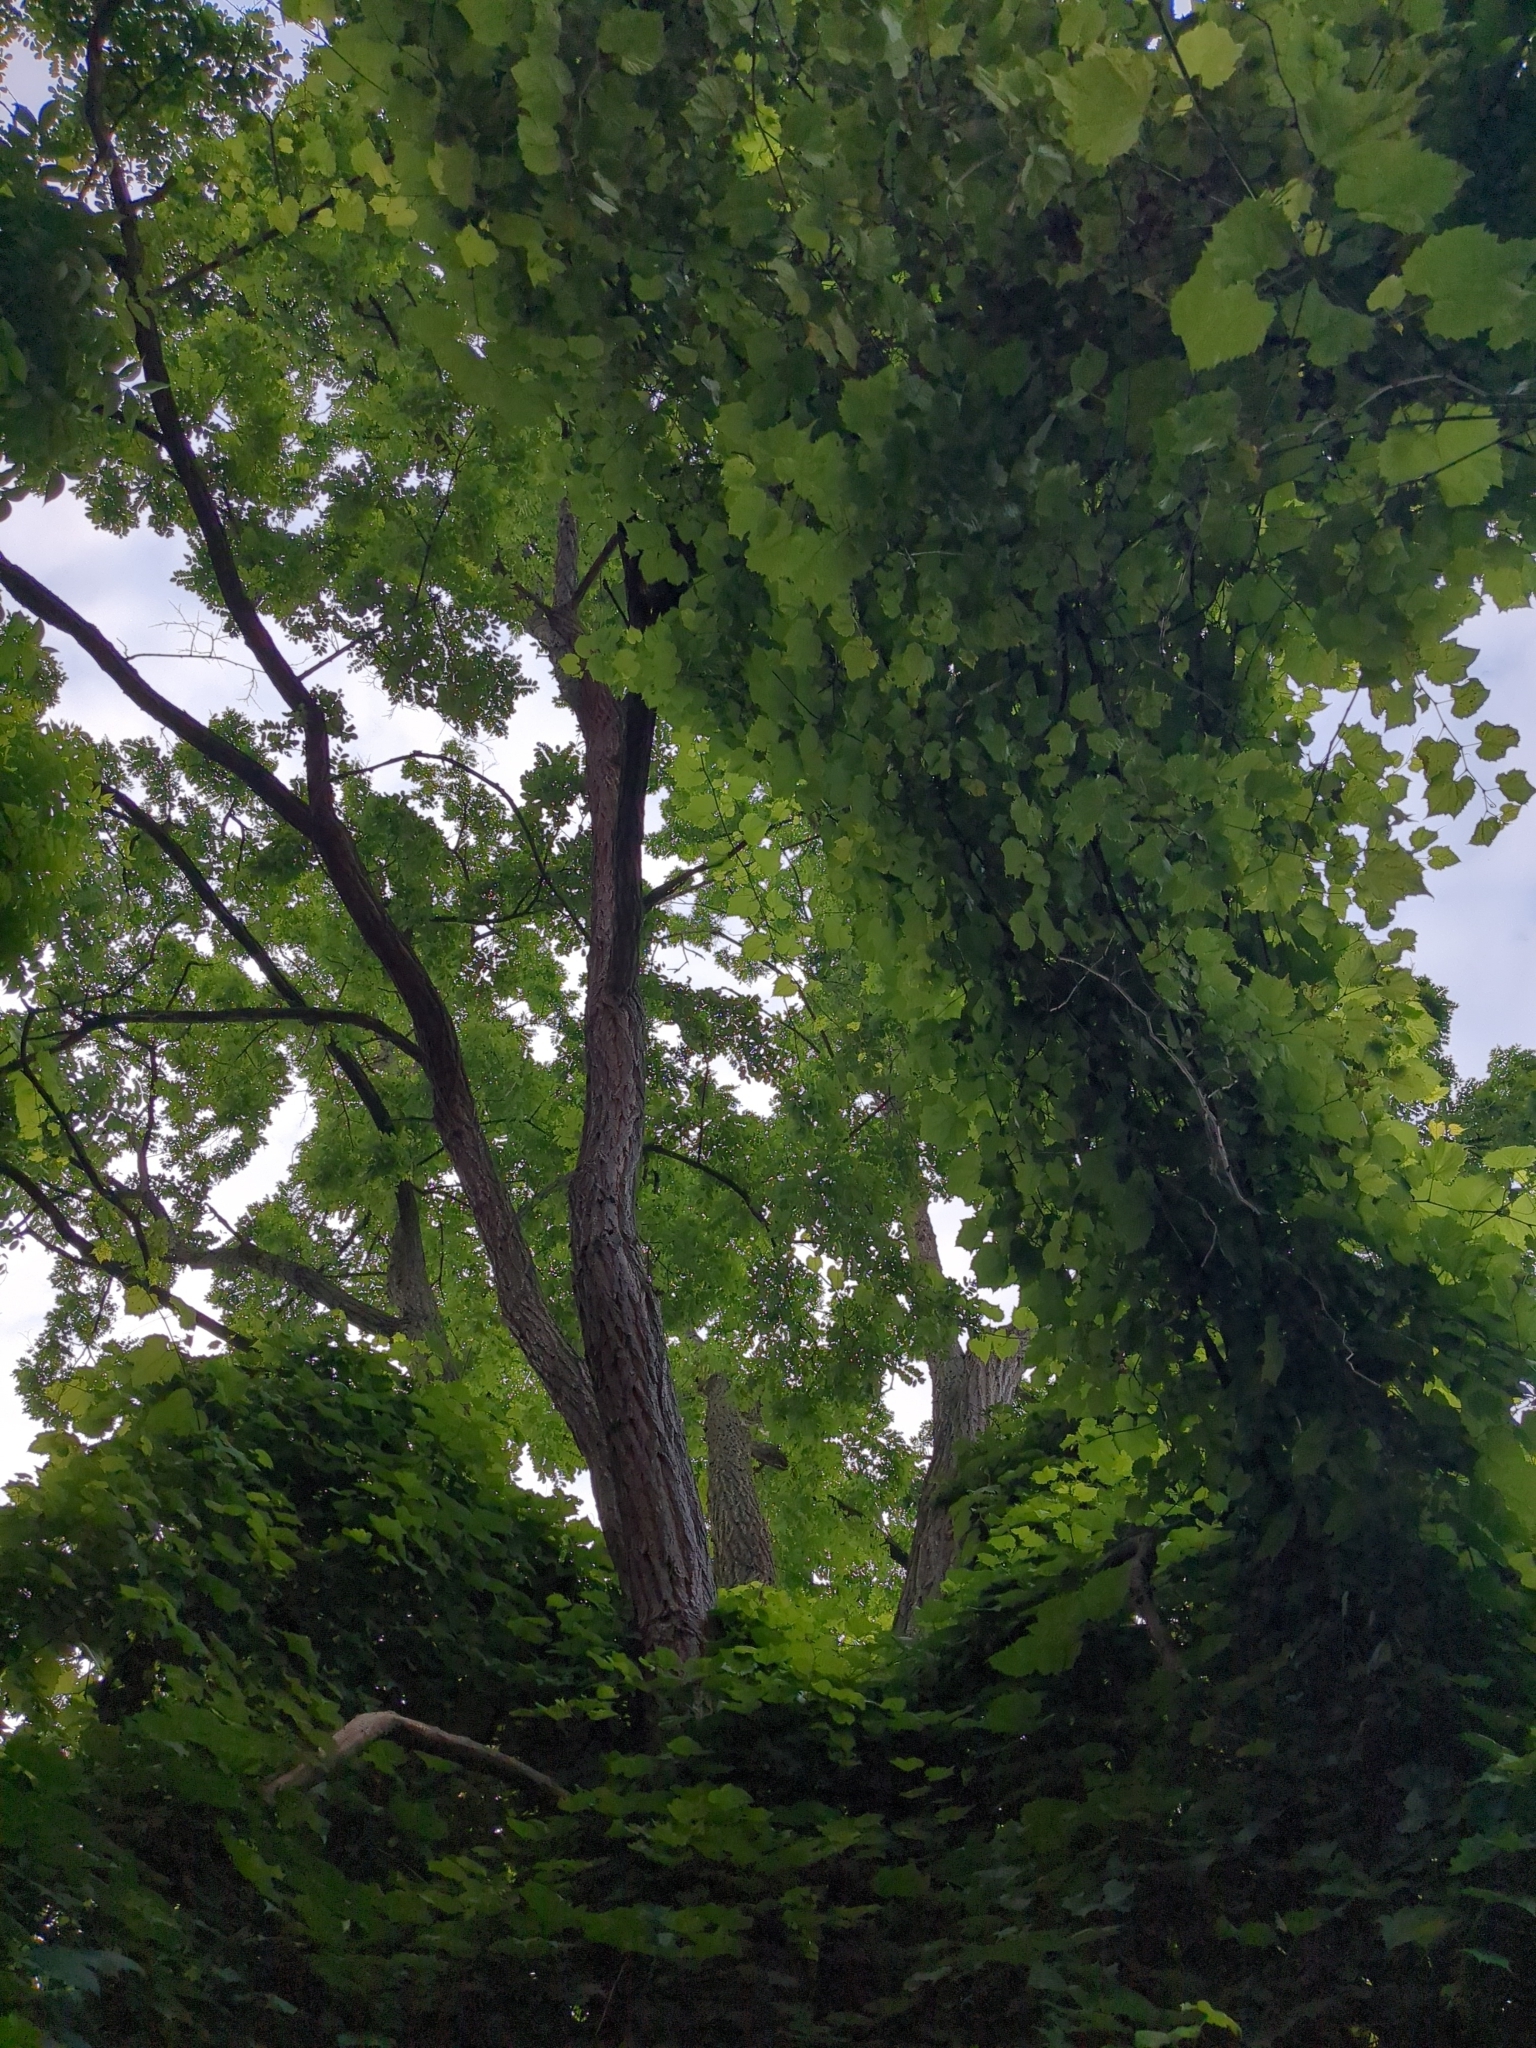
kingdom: Plantae
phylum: Tracheophyta
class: Magnoliopsida
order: Fabales
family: Fabaceae
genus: Robinia
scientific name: Robinia pseudoacacia
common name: Black locust
